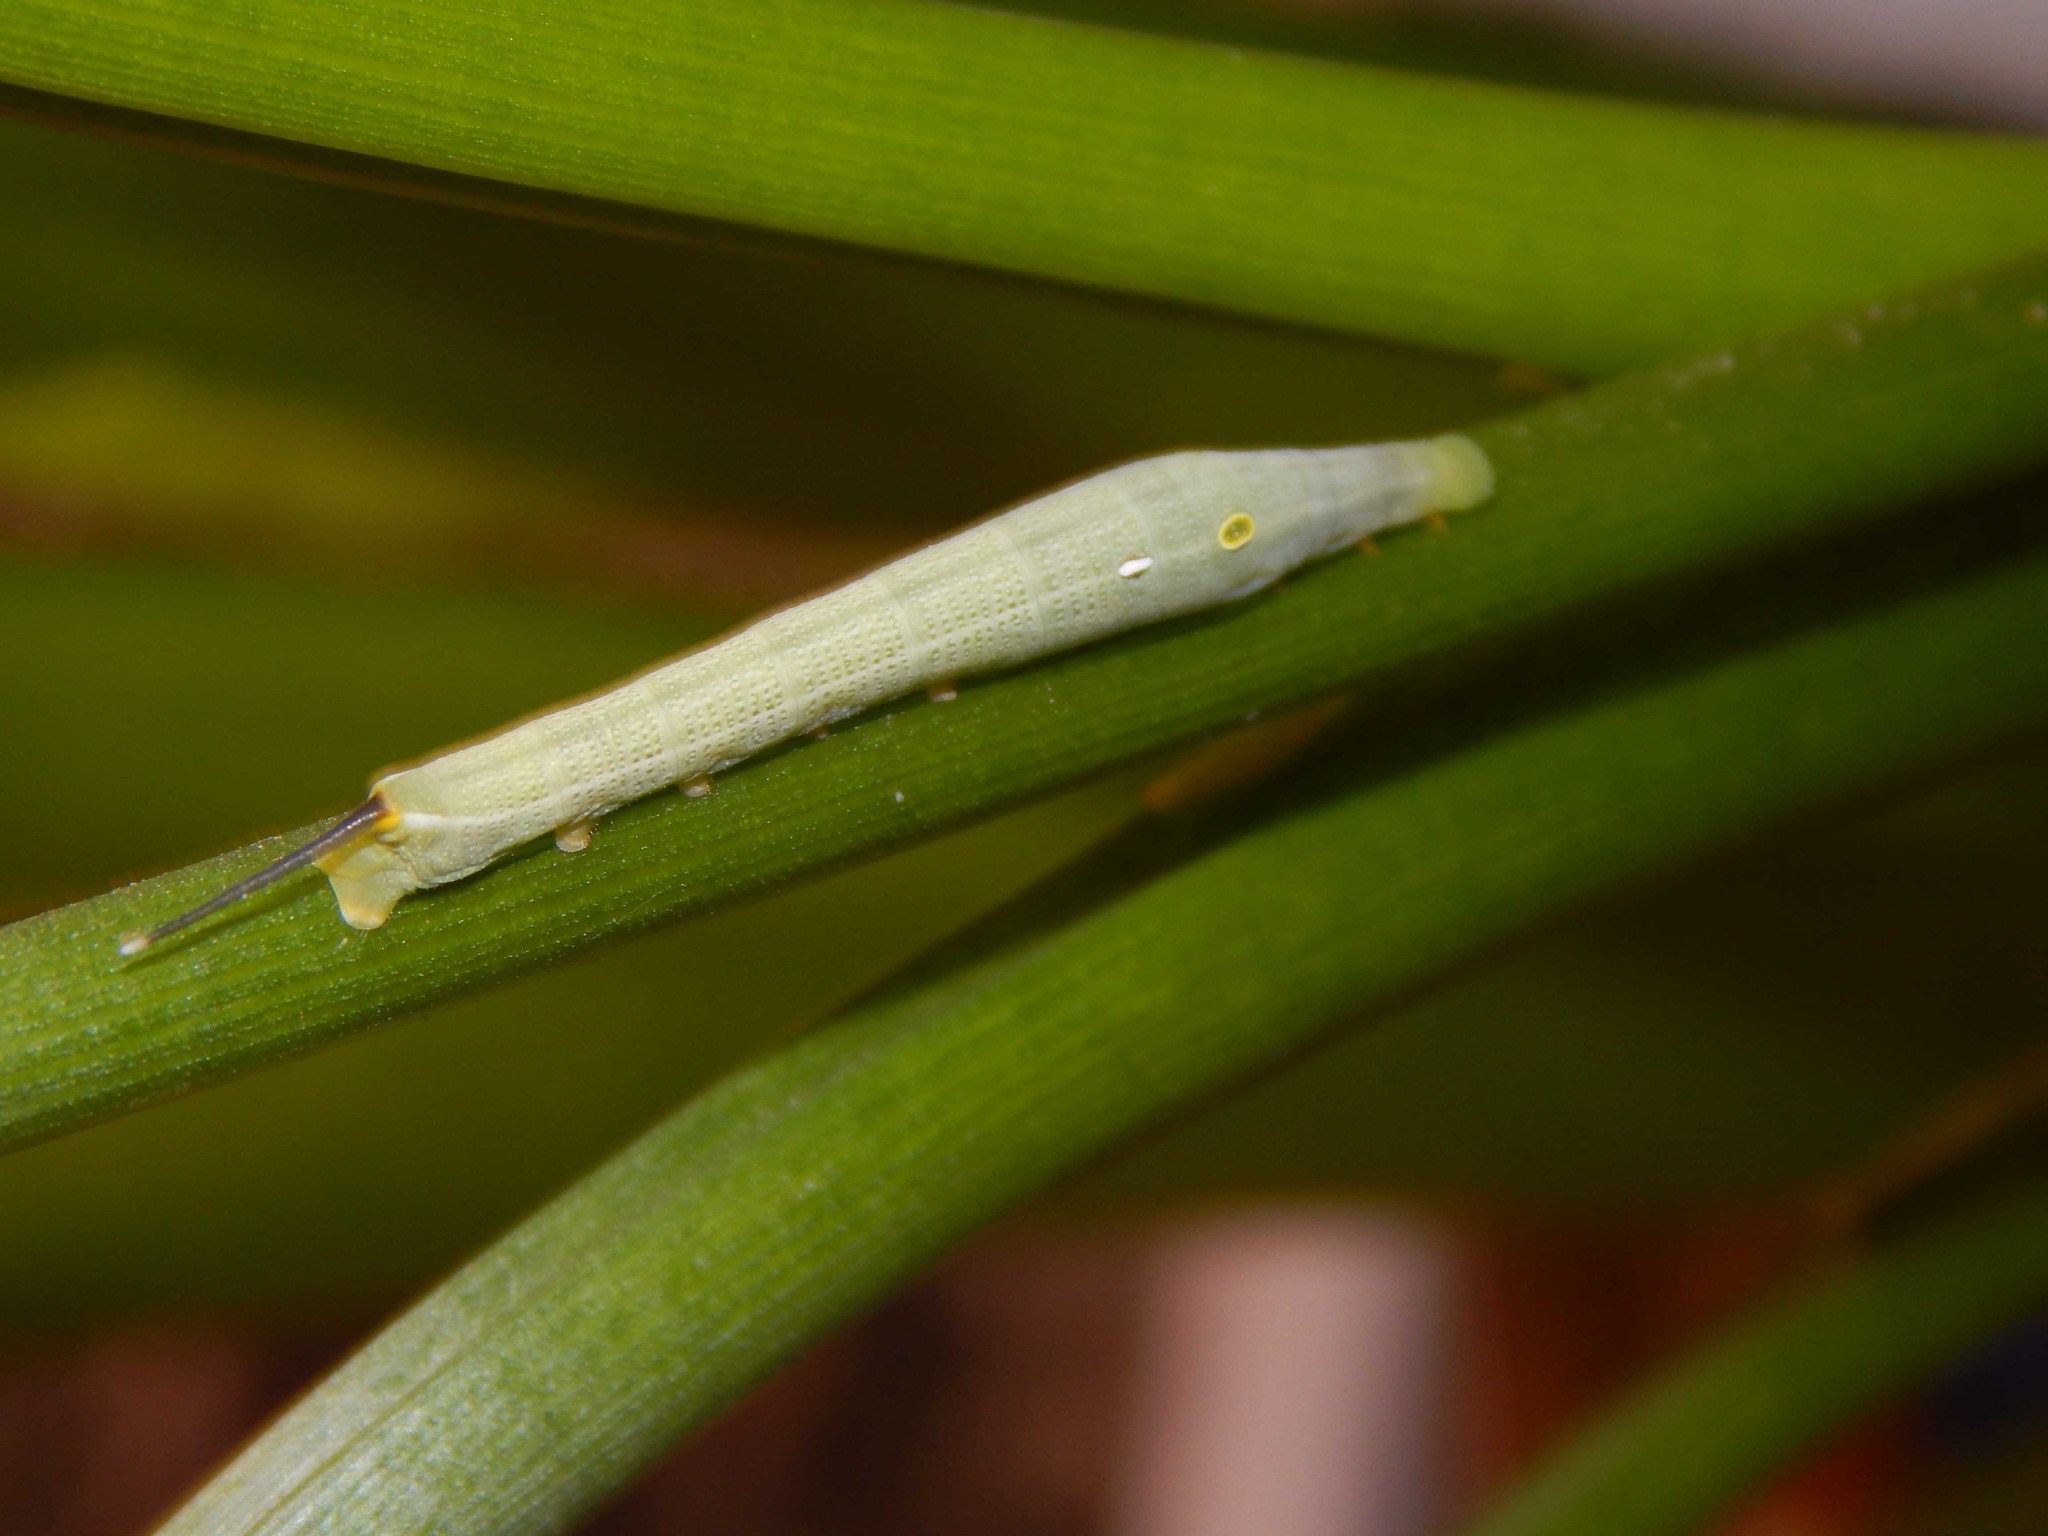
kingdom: Animalia
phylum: Arthropoda
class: Insecta
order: Lepidoptera
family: Sphingidae
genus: Hippotion
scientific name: Hippotion eson
